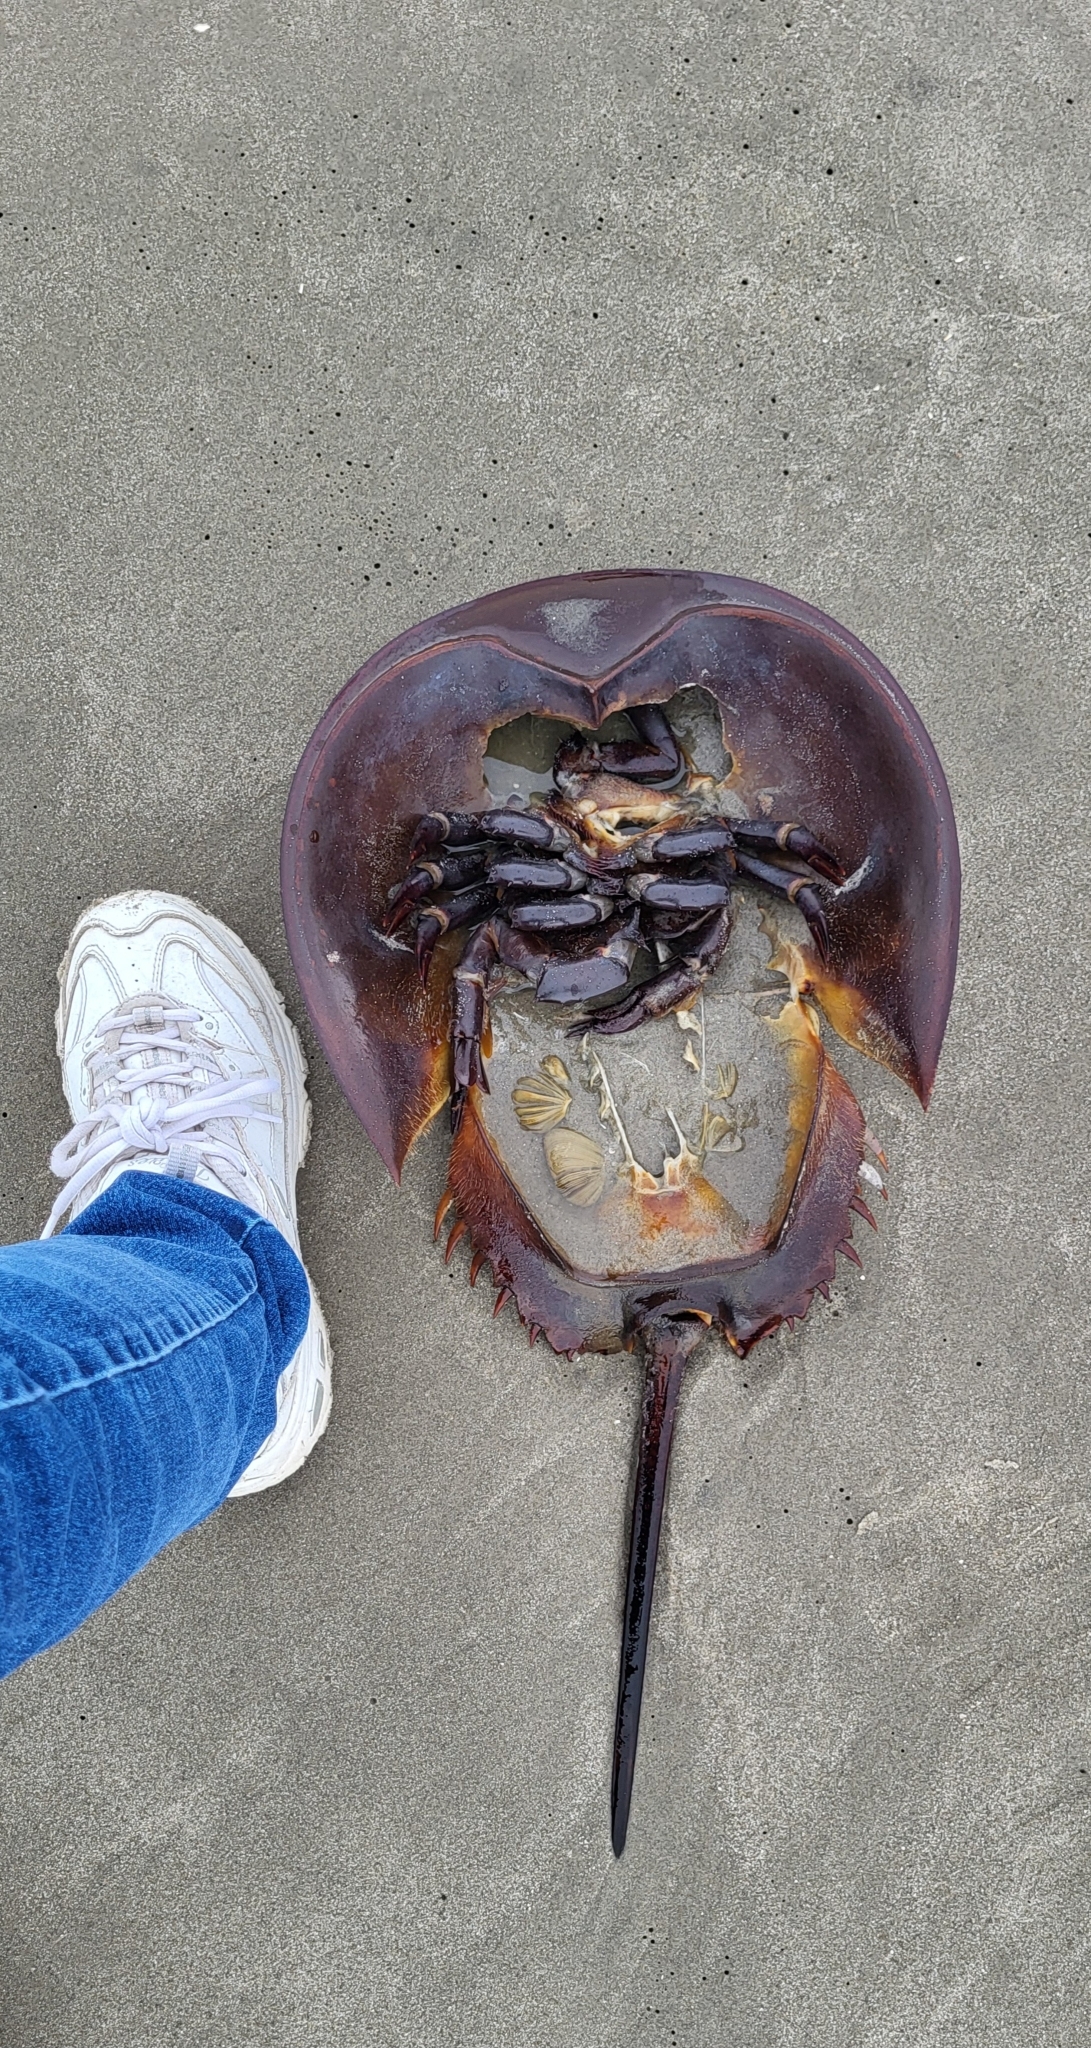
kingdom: Animalia
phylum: Arthropoda
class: Merostomata
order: Xiphosurida
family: Limulidae
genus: Limulus
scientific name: Limulus polyphemus
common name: Horseshoe crab
